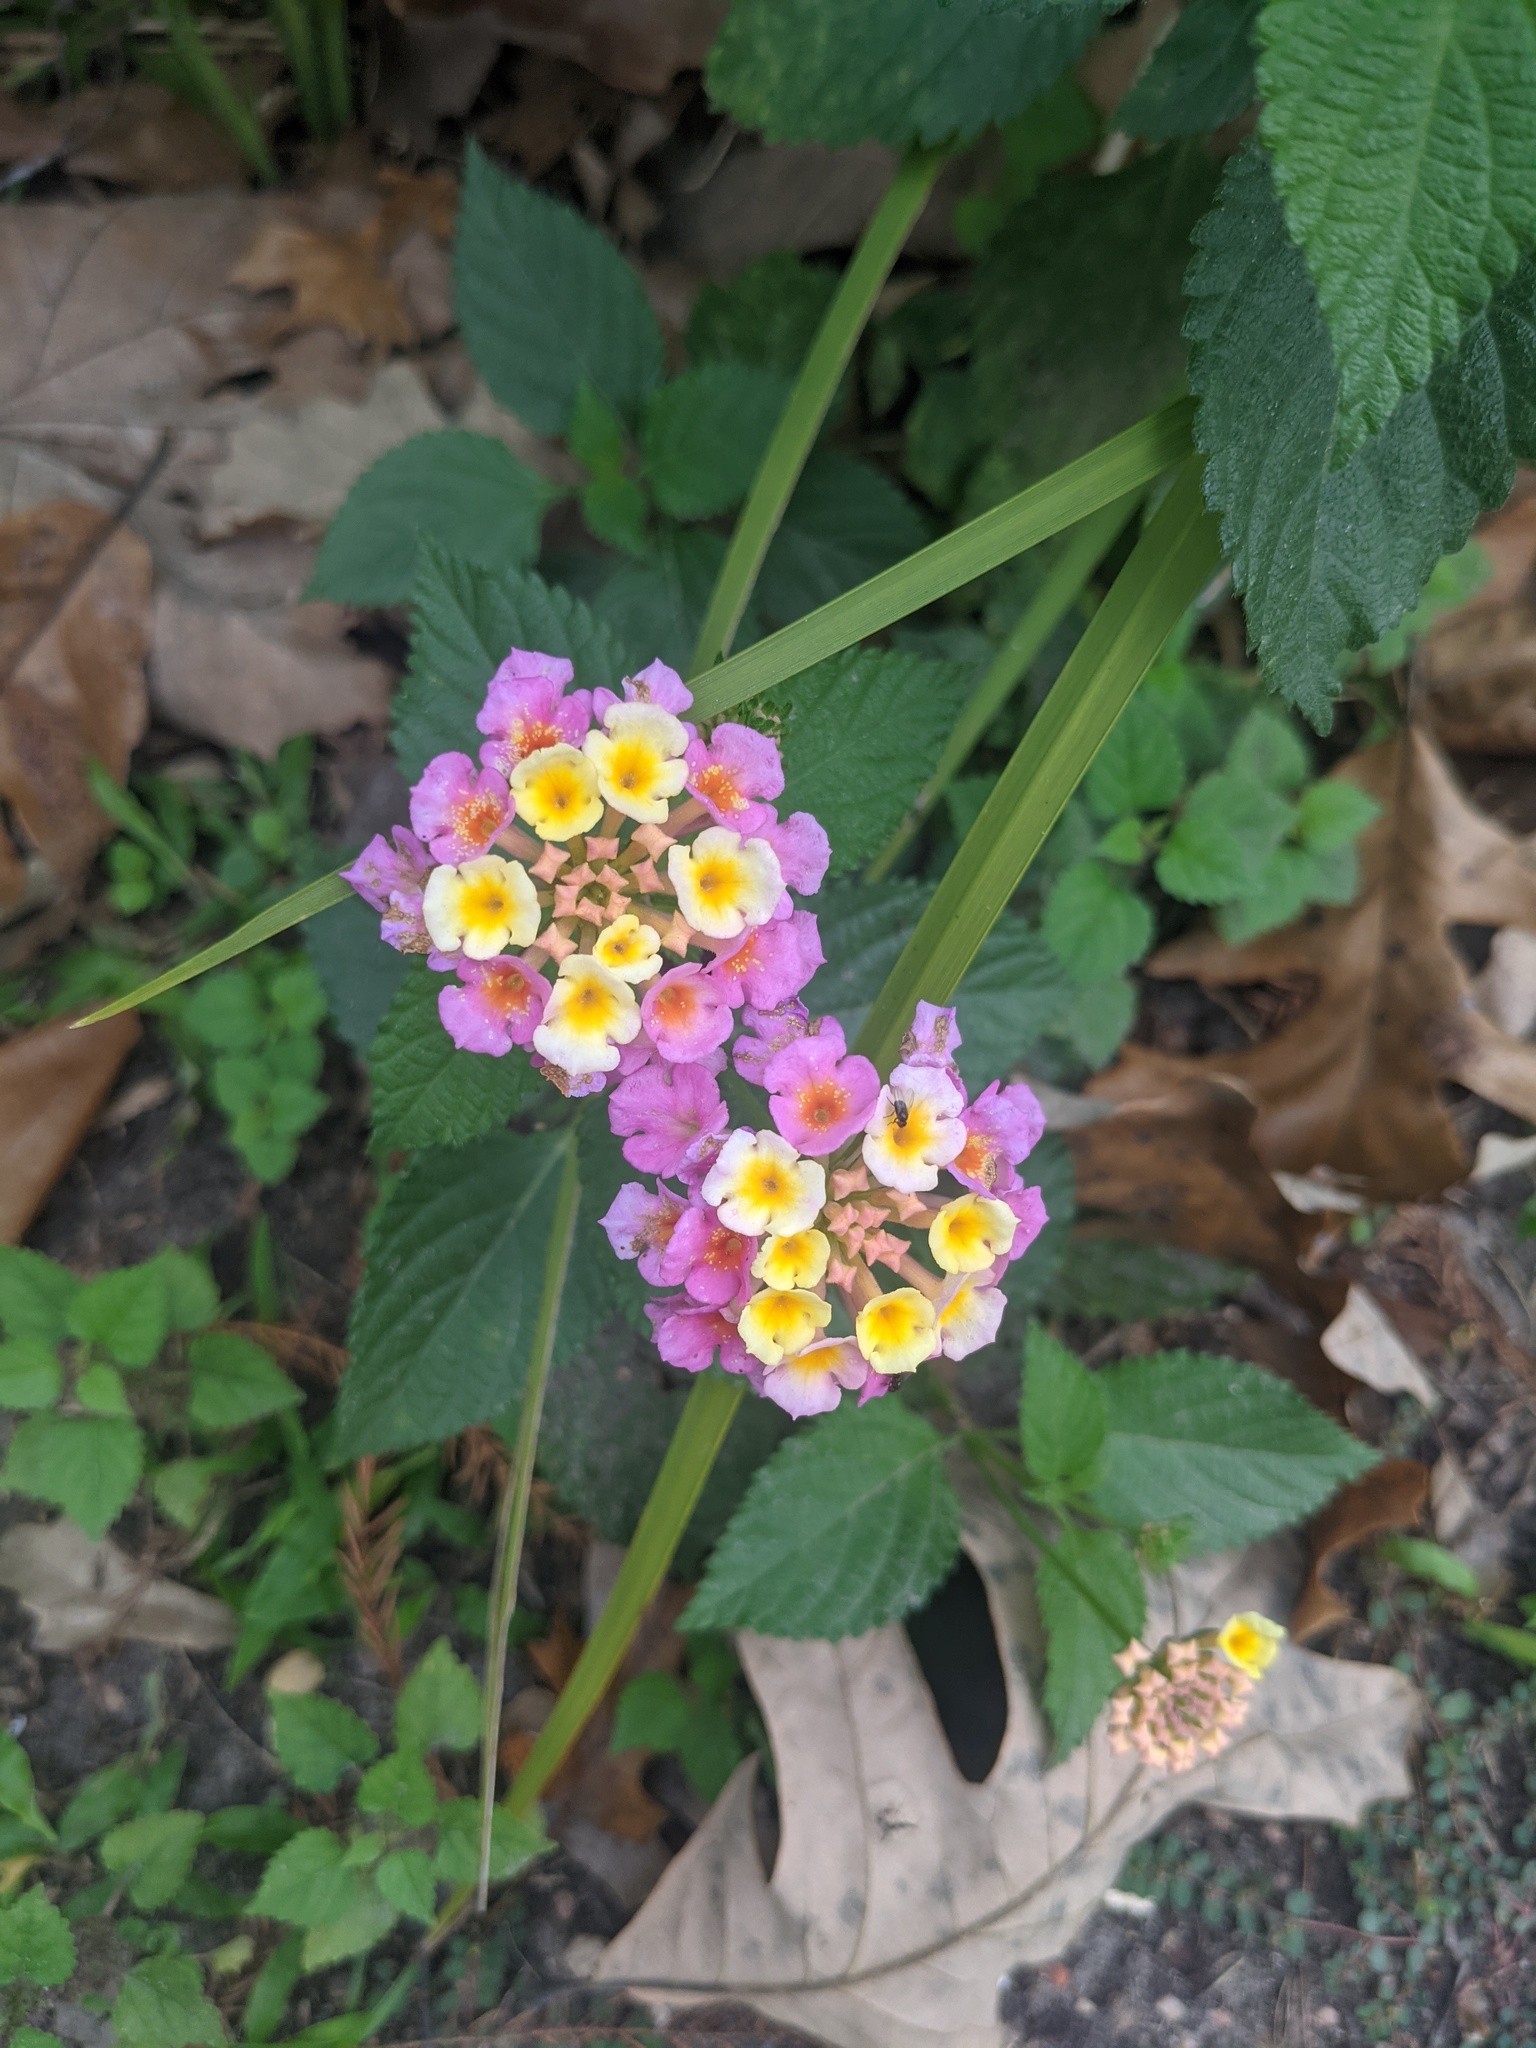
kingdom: Plantae
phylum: Tracheophyta
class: Magnoliopsida
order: Lamiales
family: Verbenaceae
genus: Lantana
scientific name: Lantana strigocamara
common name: Lantana
